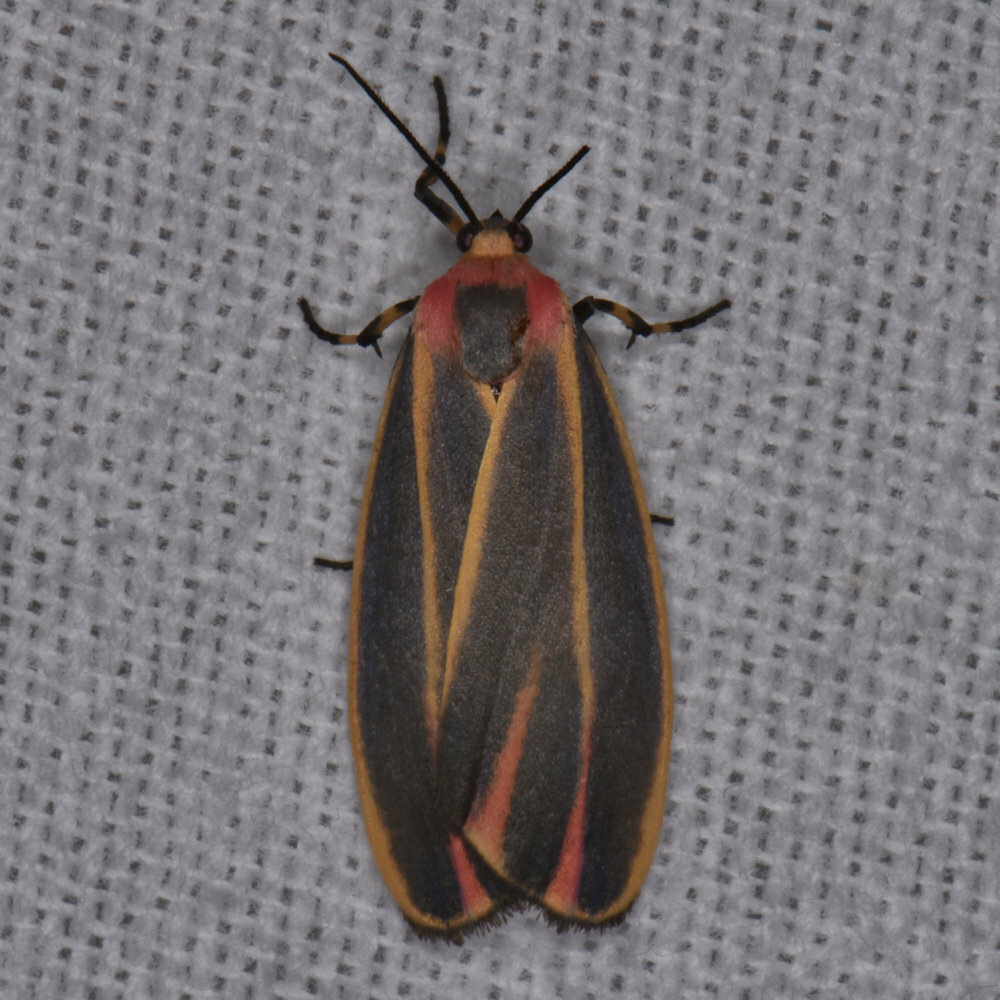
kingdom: Animalia
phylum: Arthropoda
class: Insecta
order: Lepidoptera
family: Erebidae
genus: Hypoprepia
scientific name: Hypoprepia fucosa
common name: Painted lichen moth
